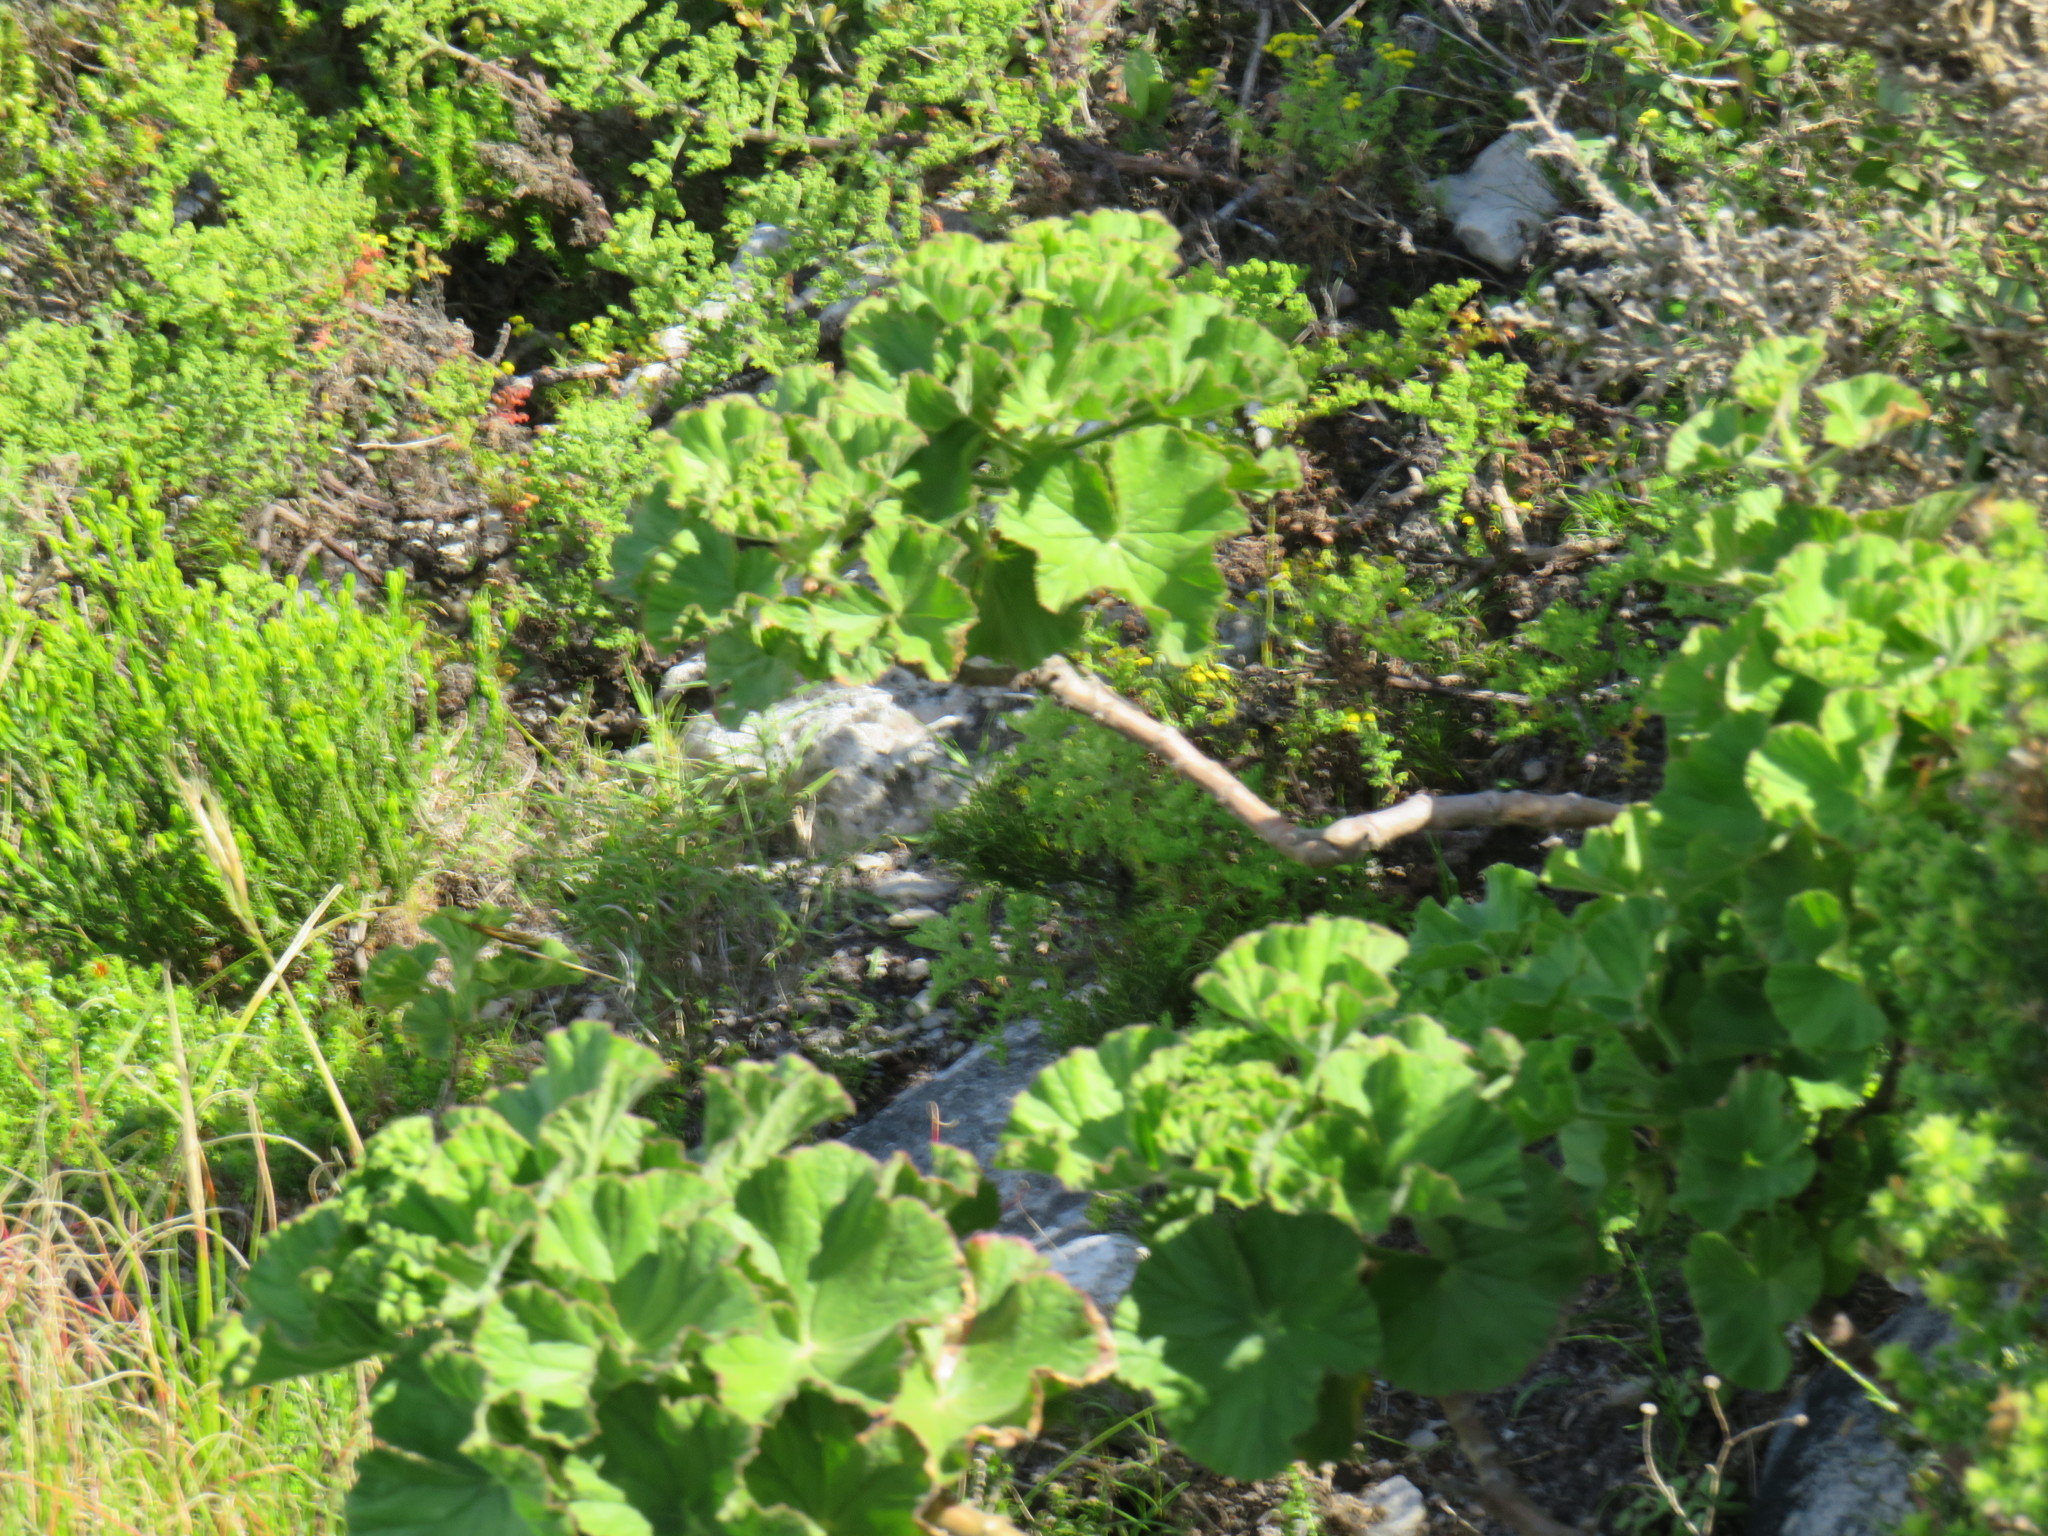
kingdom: Plantae
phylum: Tracheophyta
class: Magnoliopsida
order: Geraniales
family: Geraniaceae
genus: Pelargonium
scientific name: Pelargonium cucullatum
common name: Tree pelargonium
